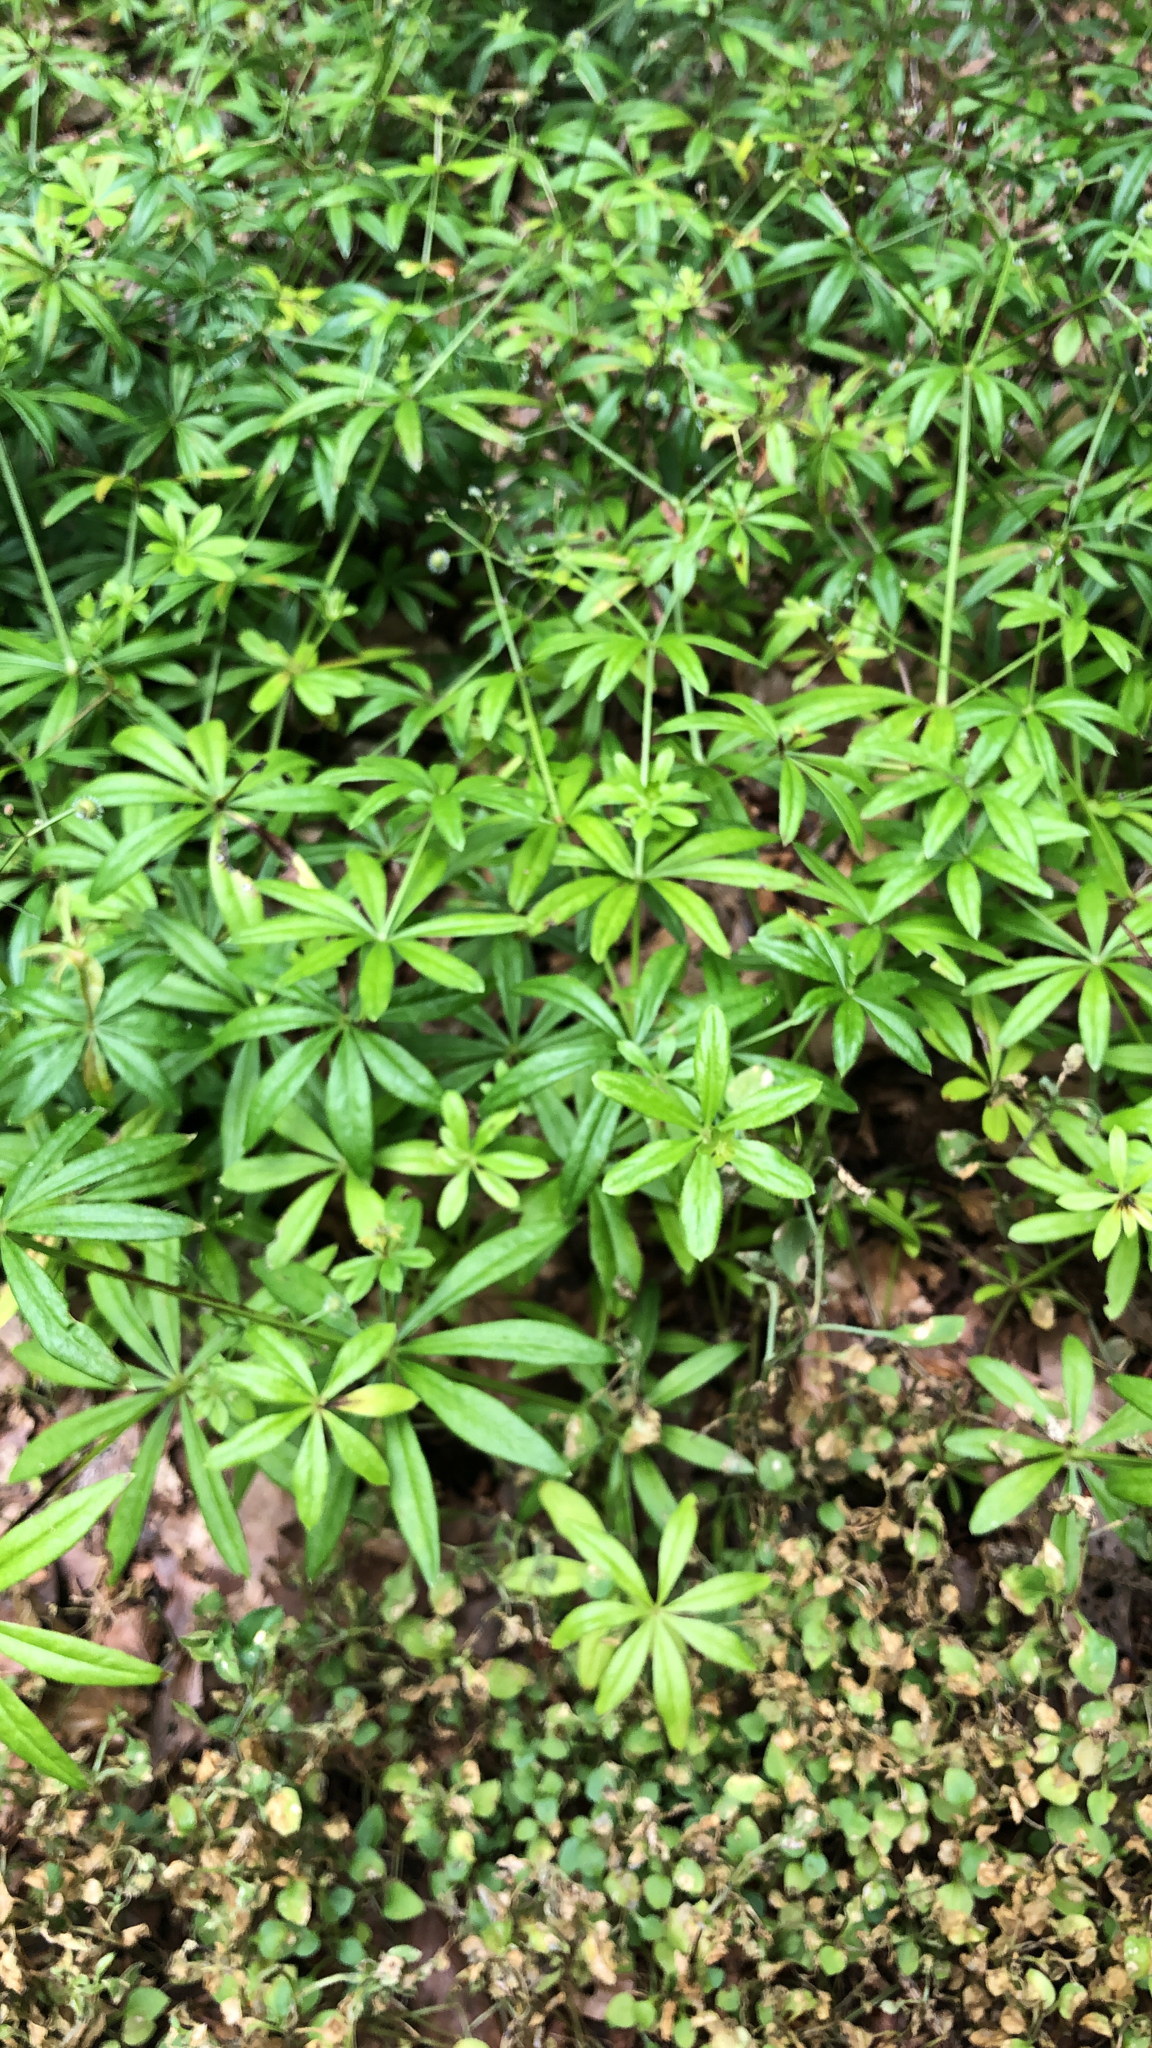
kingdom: Plantae
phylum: Tracheophyta
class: Magnoliopsida
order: Gentianales
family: Rubiaceae
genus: Galium
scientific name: Galium odoratum
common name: Sweet woodruff
